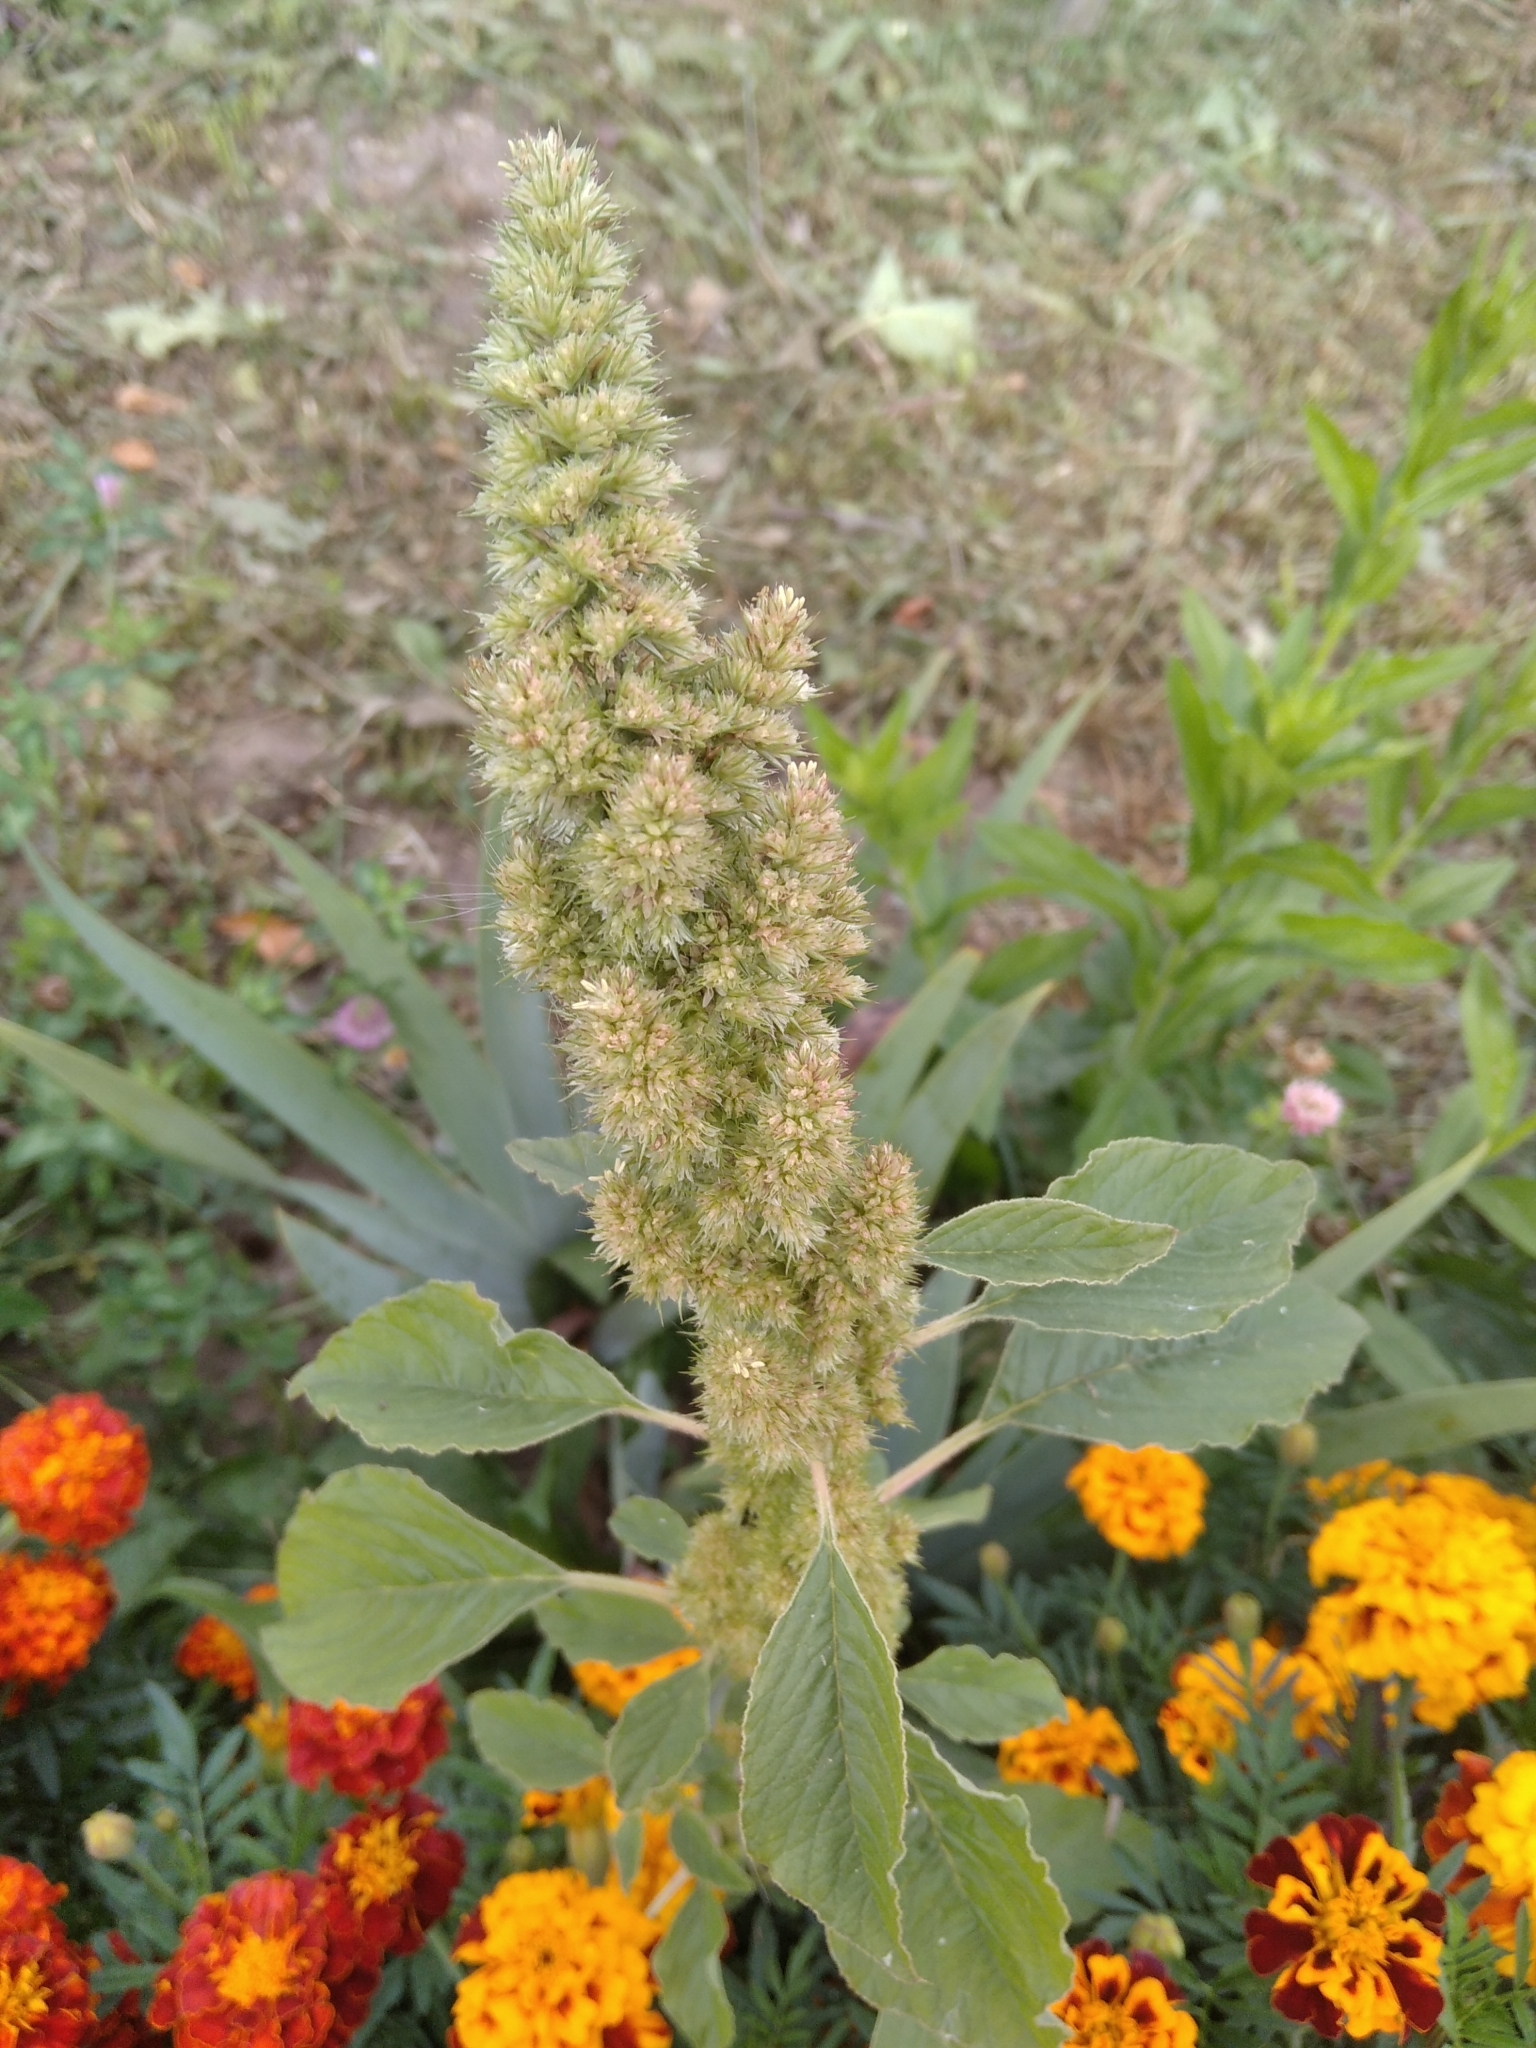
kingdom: Plantae
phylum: Tracheophyta
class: Magnoliopsida
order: Caryophyllales
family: Amaranthaceae
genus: Amaranthus
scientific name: Amaranthus retroflexus
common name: Redroot amaranth
